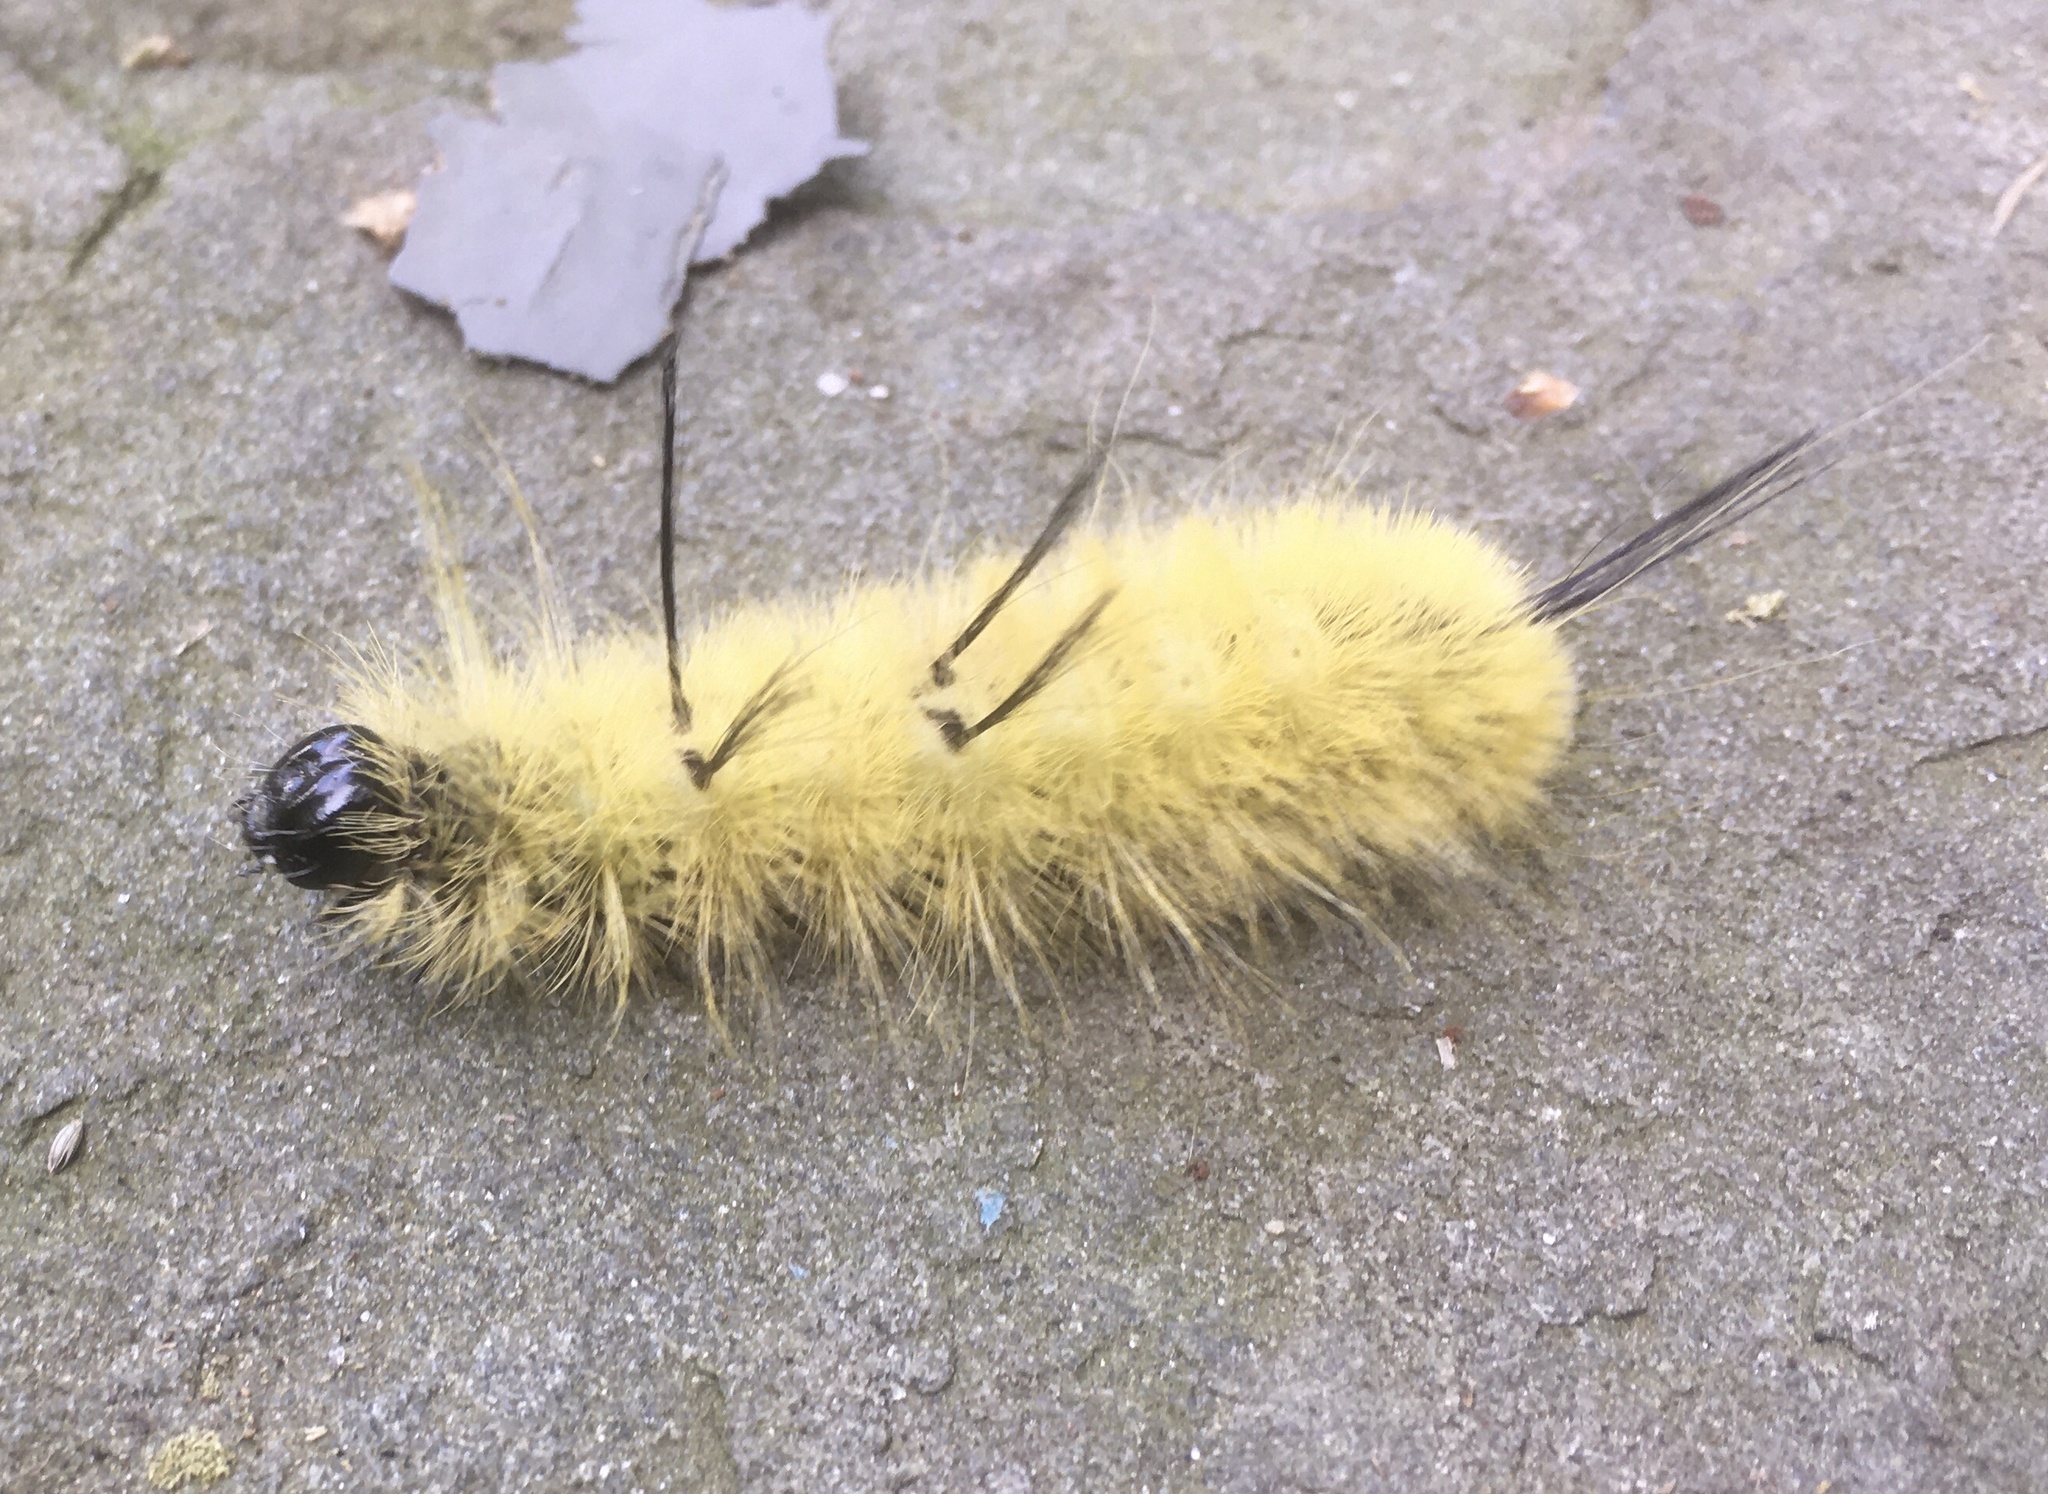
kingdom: Animalia
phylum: Arthropoda
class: Insecta
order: Lepidoptera
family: Noctuidae
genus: Acronicta
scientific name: Acronicta americana
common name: American dagger
